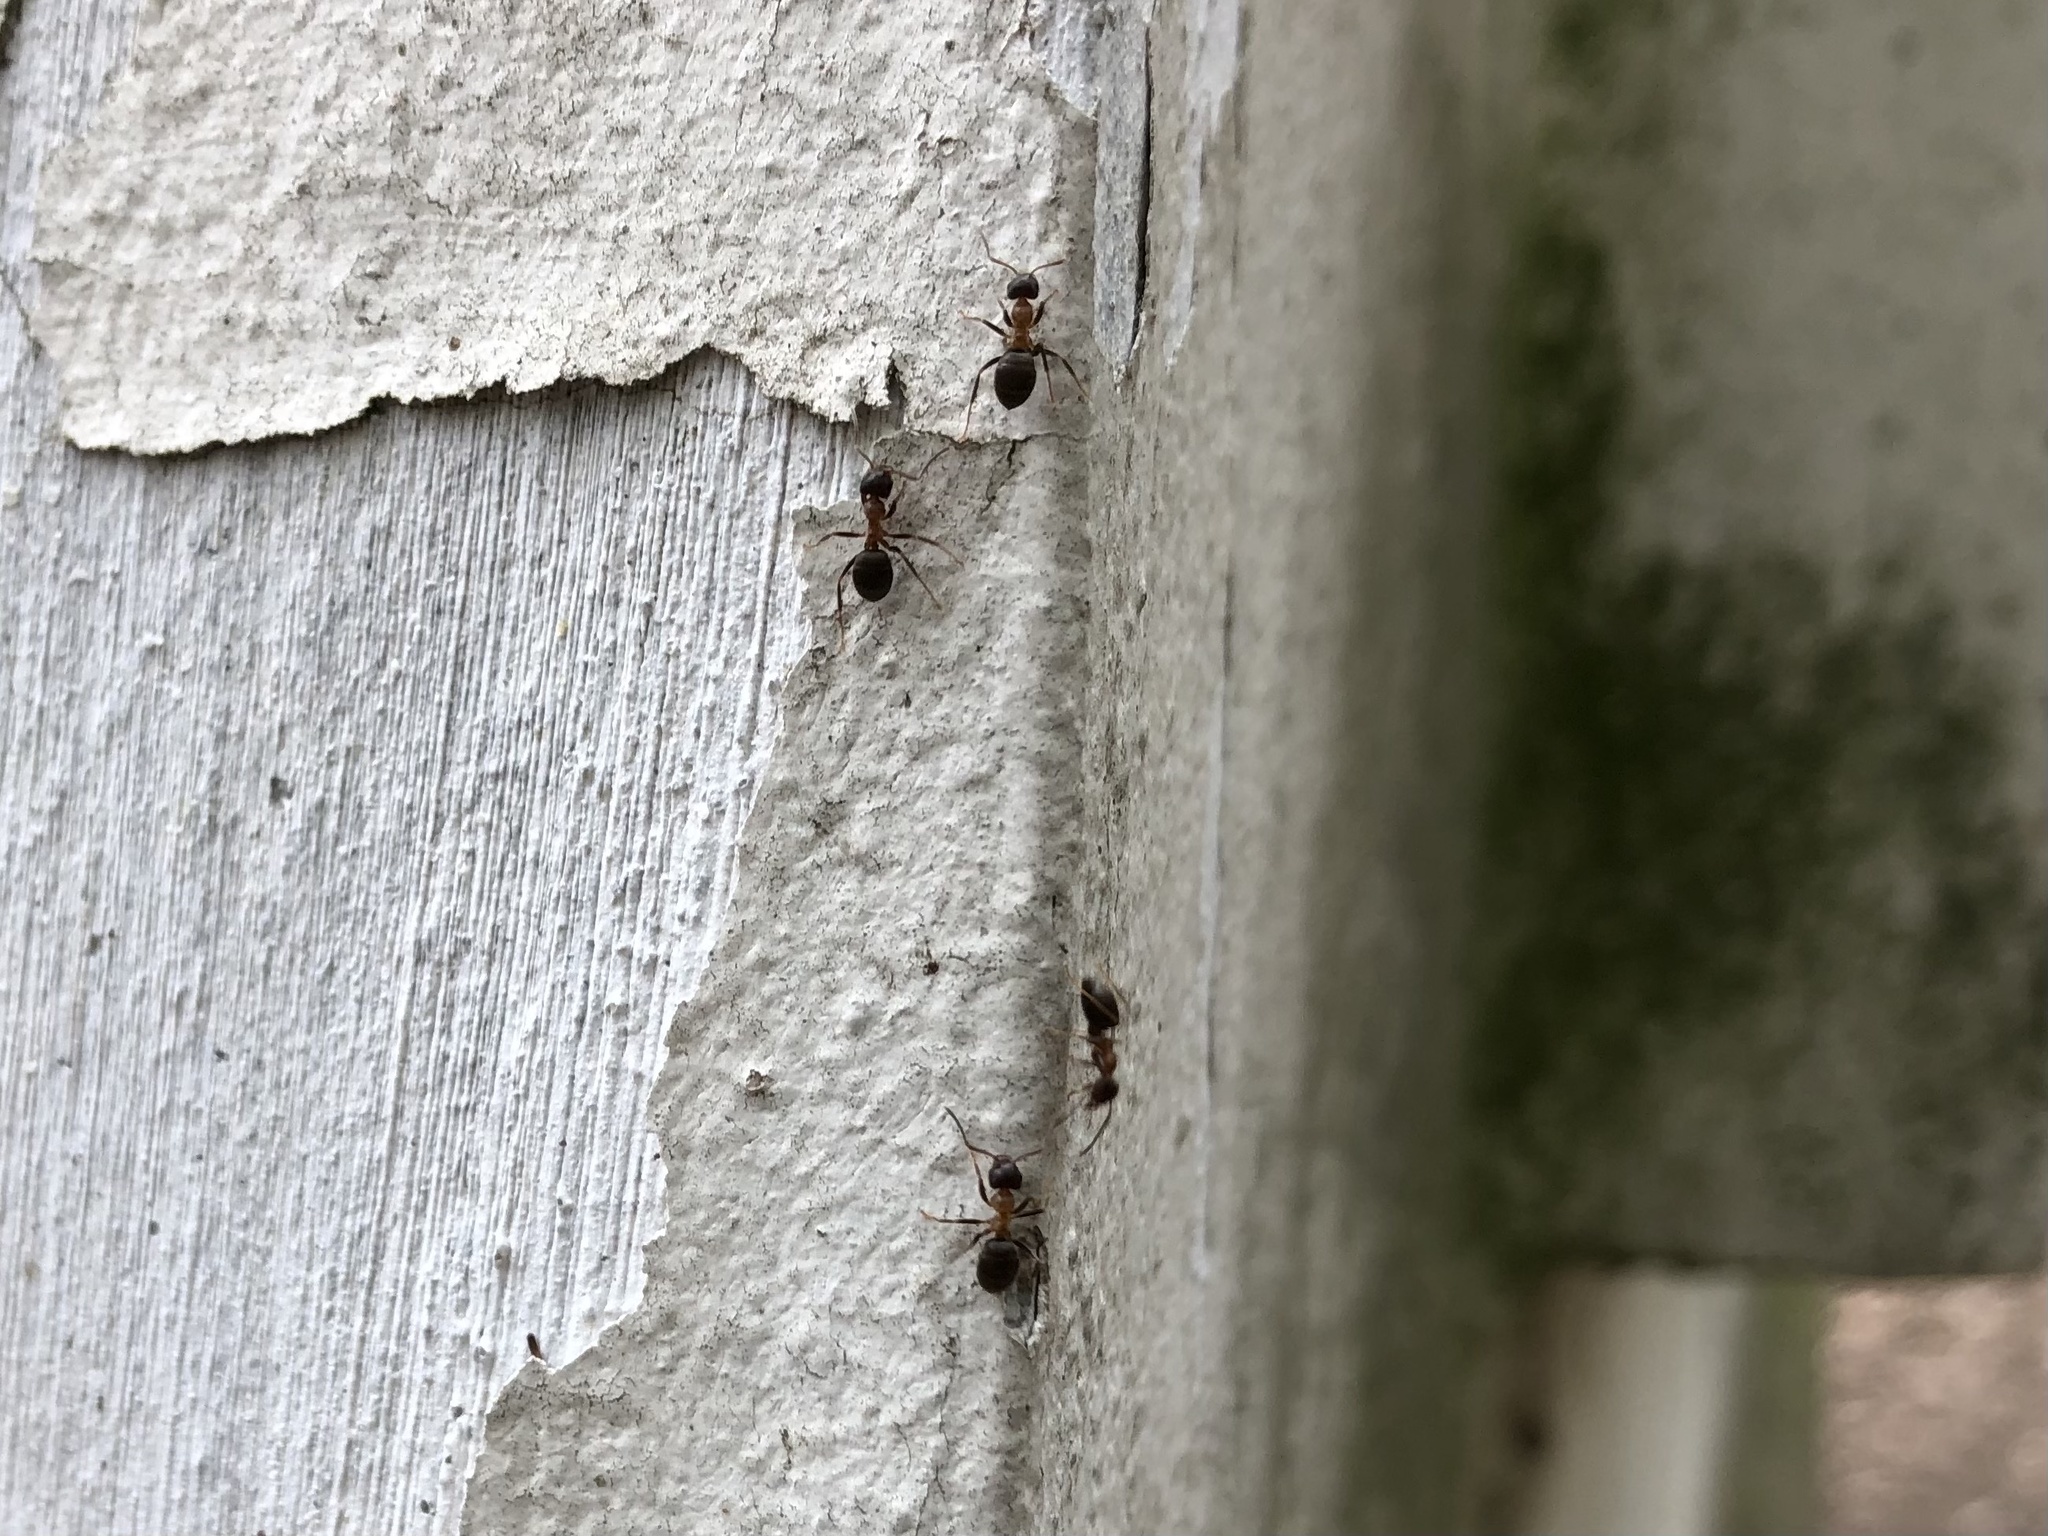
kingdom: Animalia
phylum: Arthropoda
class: Insecta
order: Hymenoptera
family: Formicidae
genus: Lasius
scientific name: Lasius emarginatus
